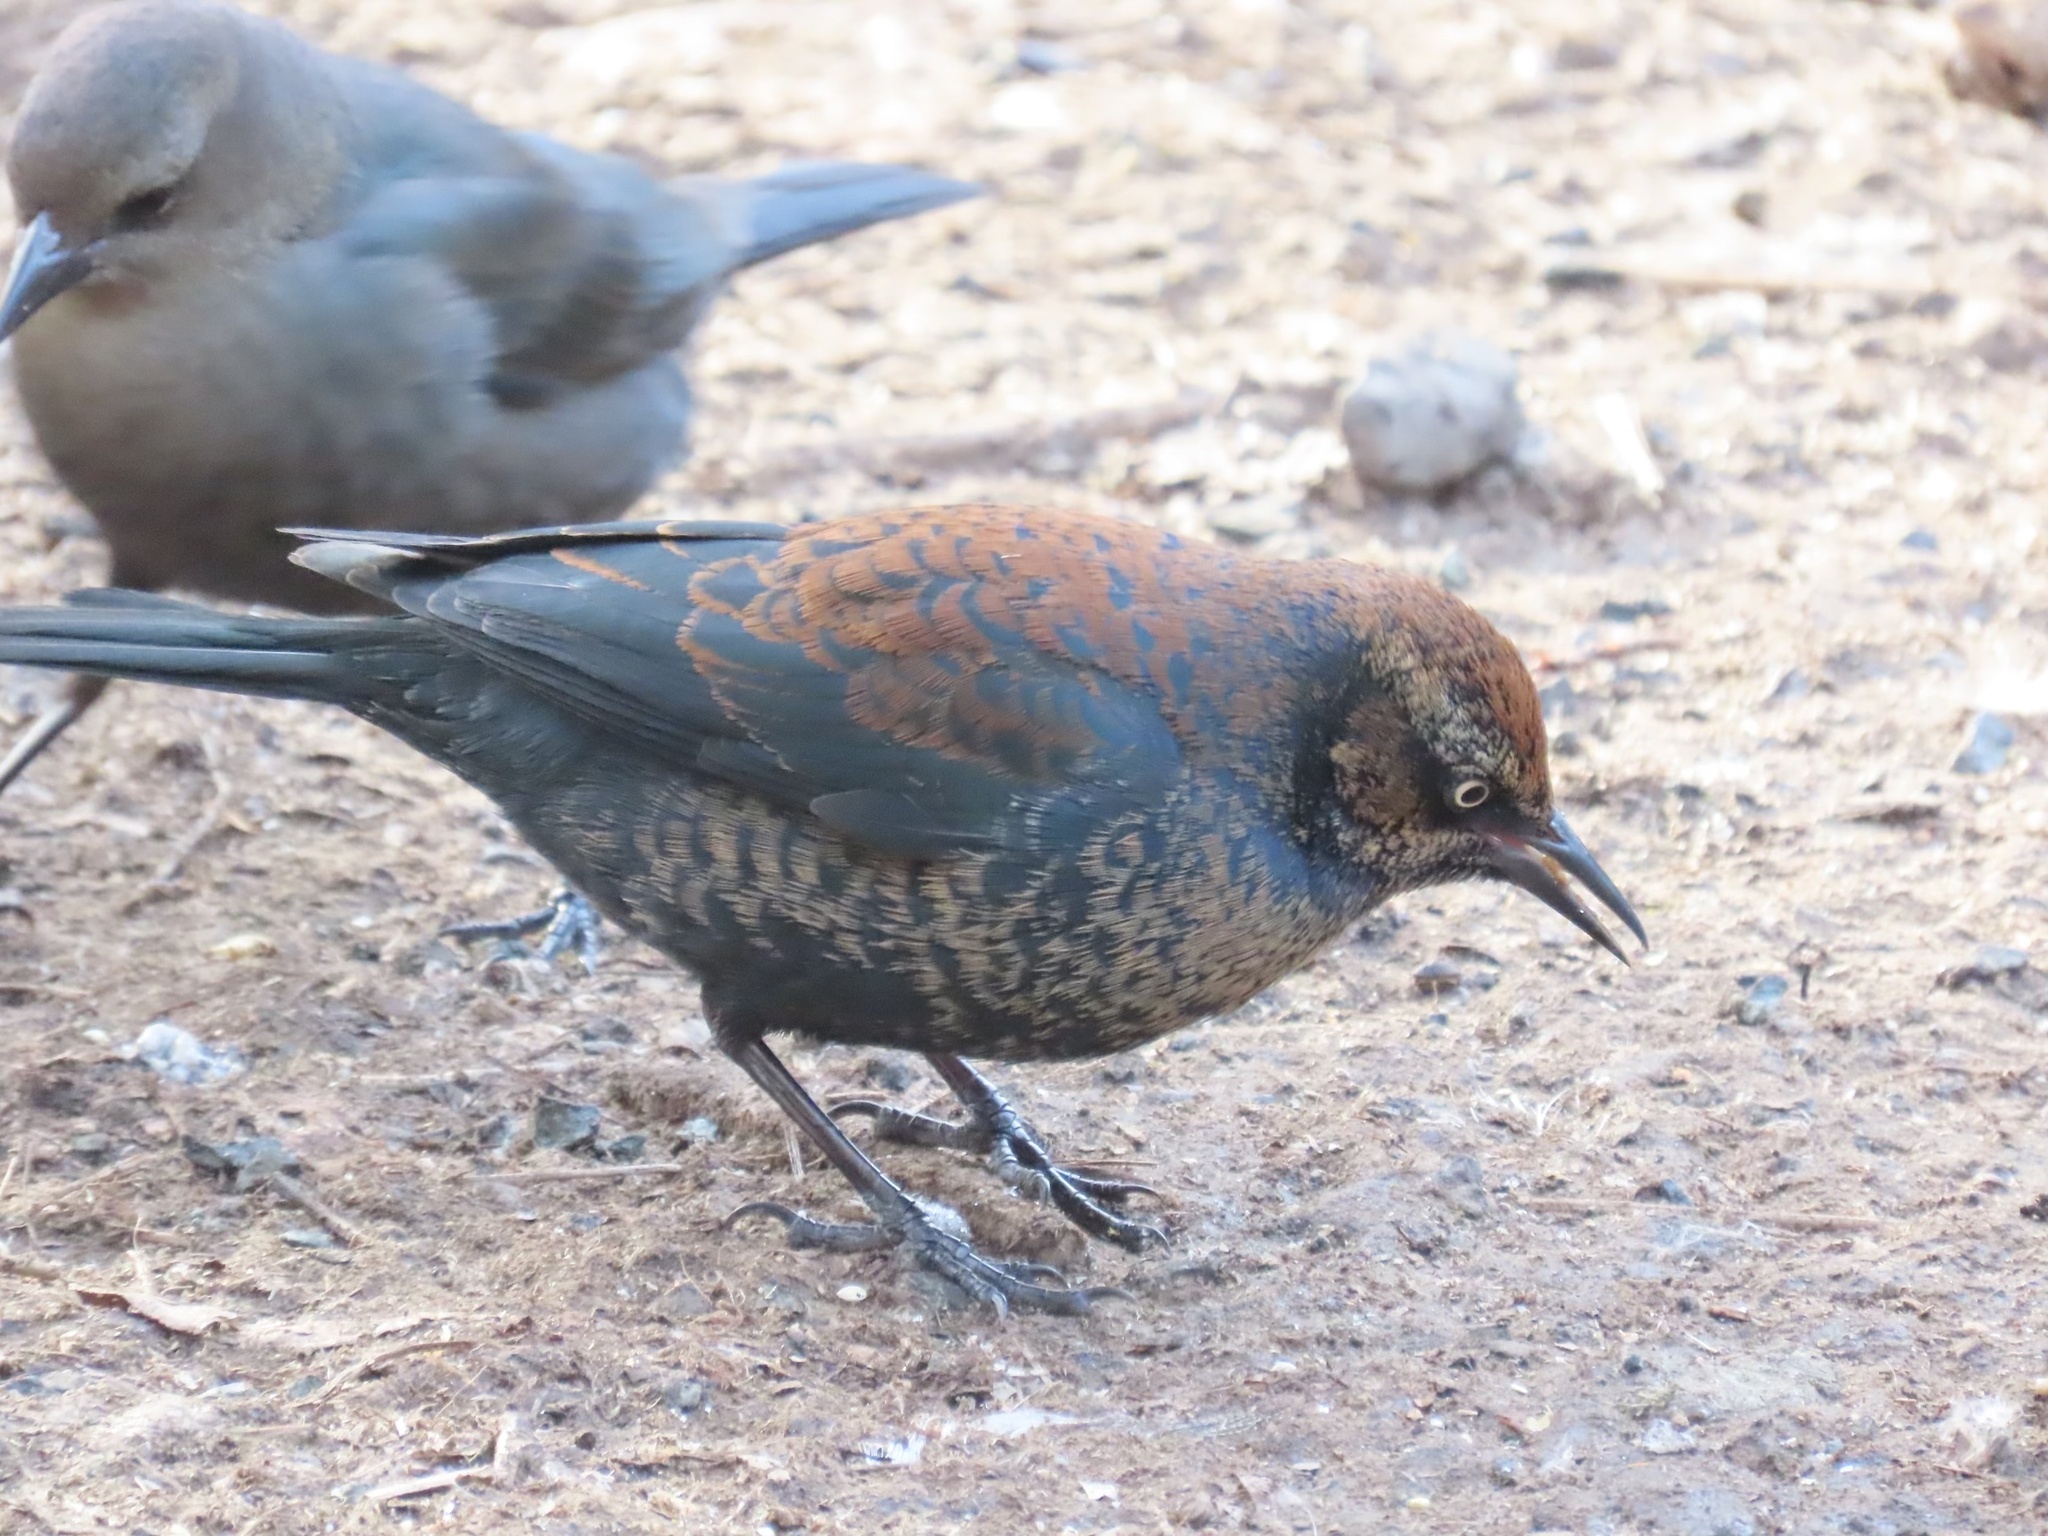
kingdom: Animalia
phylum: Chordata
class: Aves
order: Passeriformes
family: Icteridae
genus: Euphagus
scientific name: Euphagus carolinus
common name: Rusty blackbird
